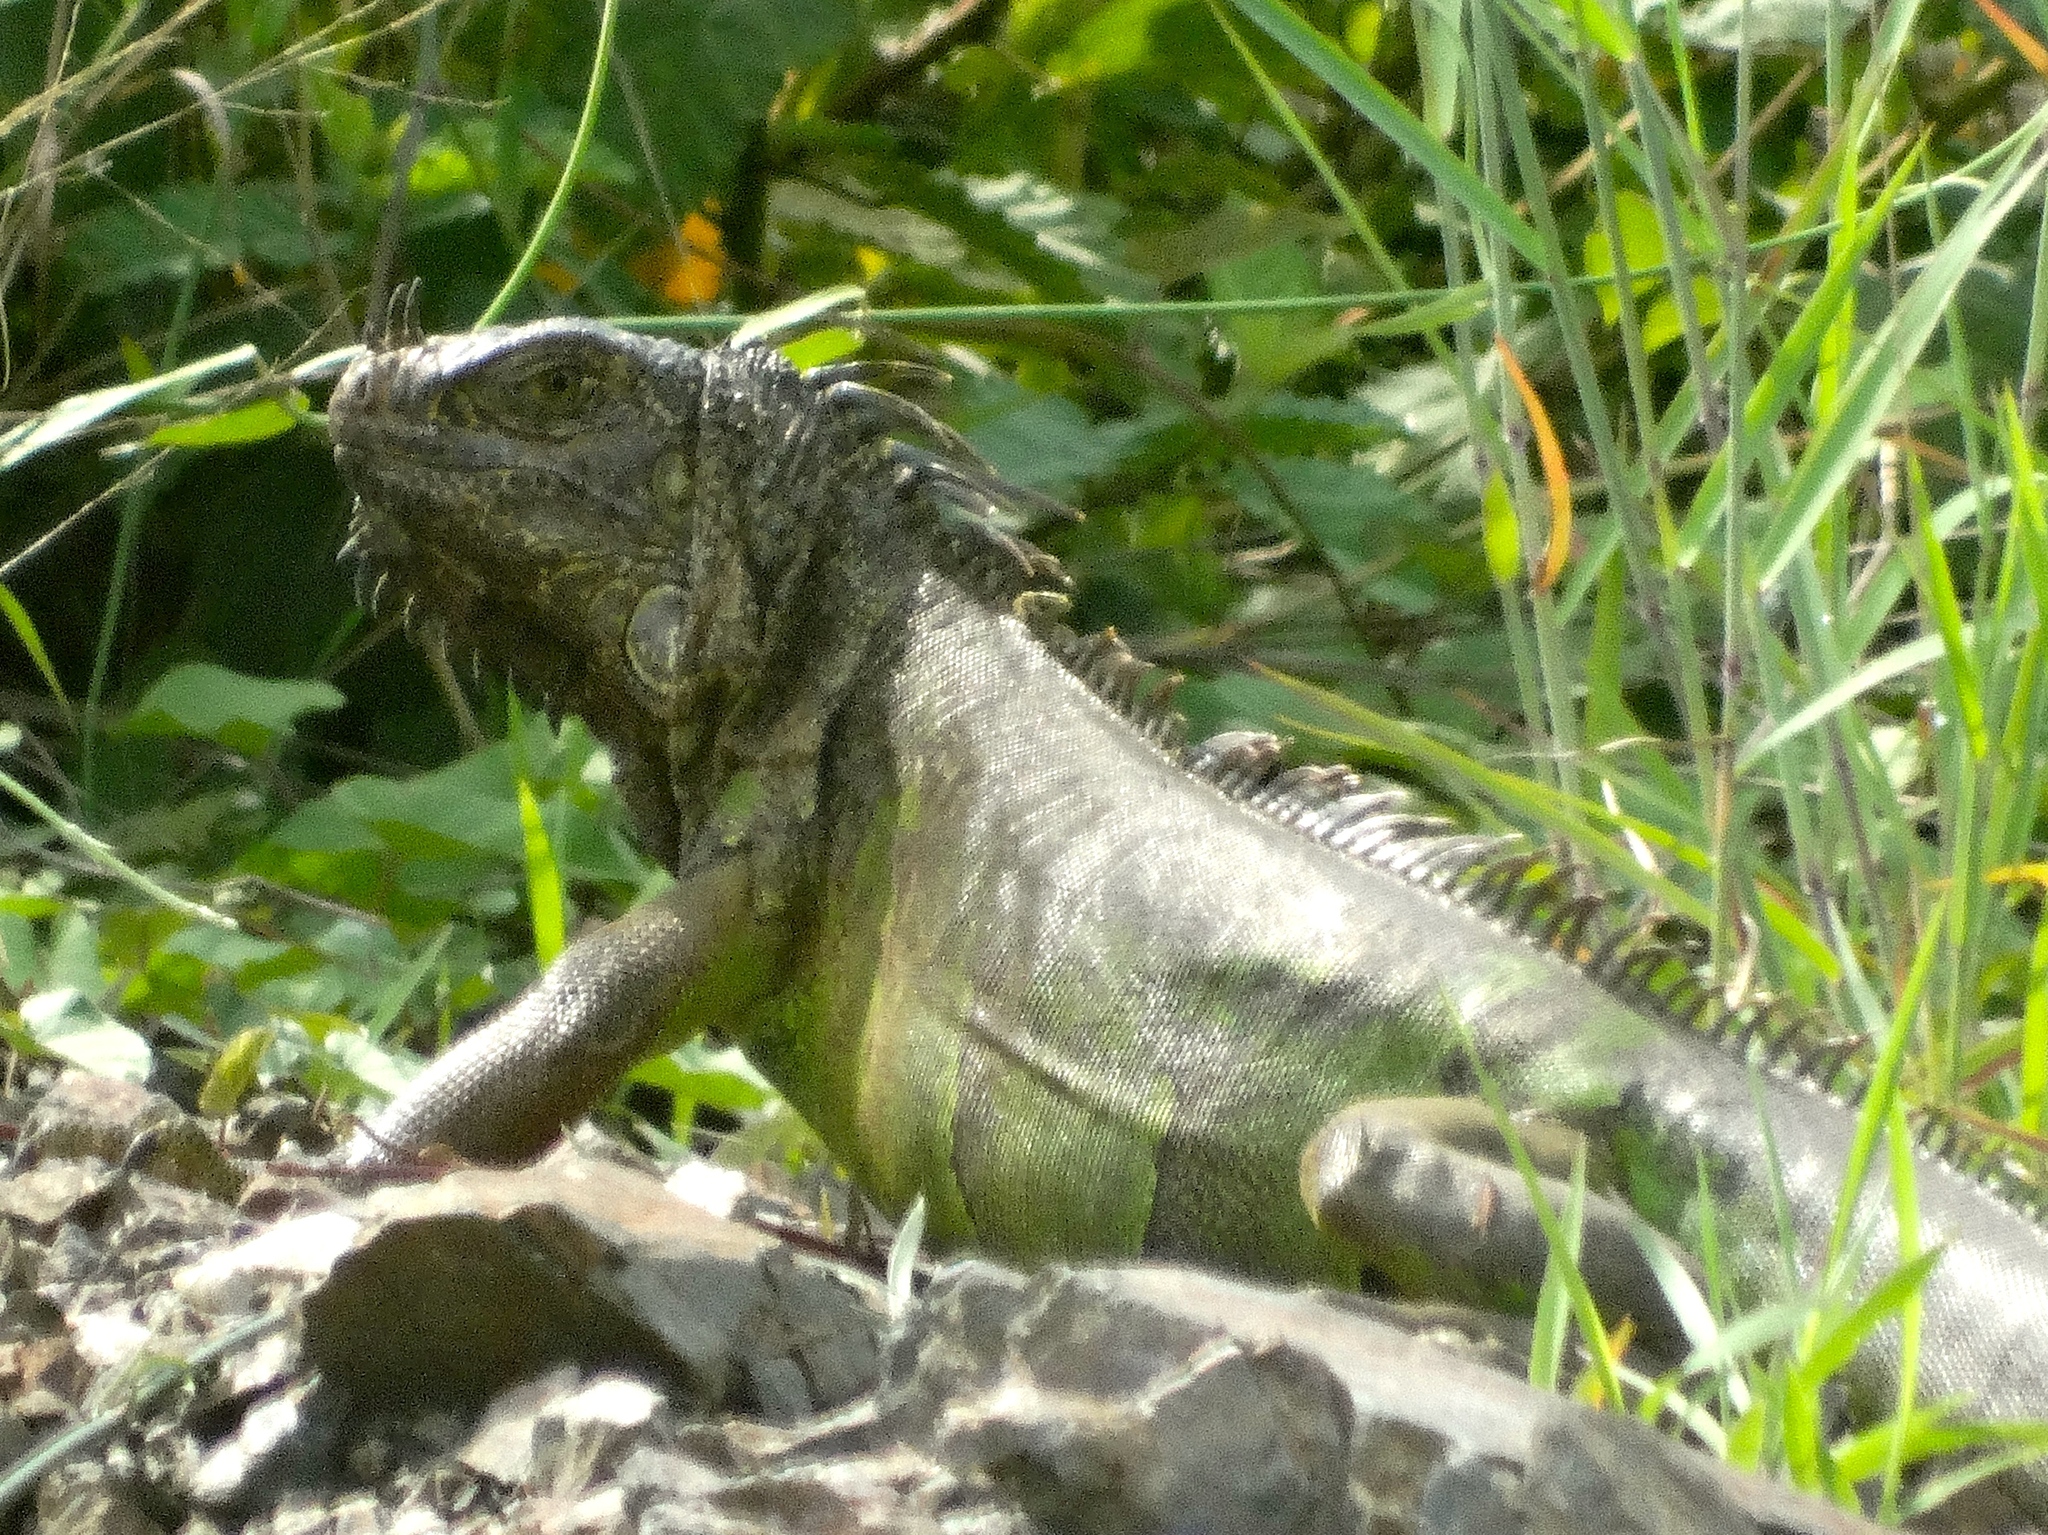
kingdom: Animalia
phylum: Chordata
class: Squamata
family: Iguanidae
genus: Iguana
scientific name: Iguana iguana
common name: Green iguana
